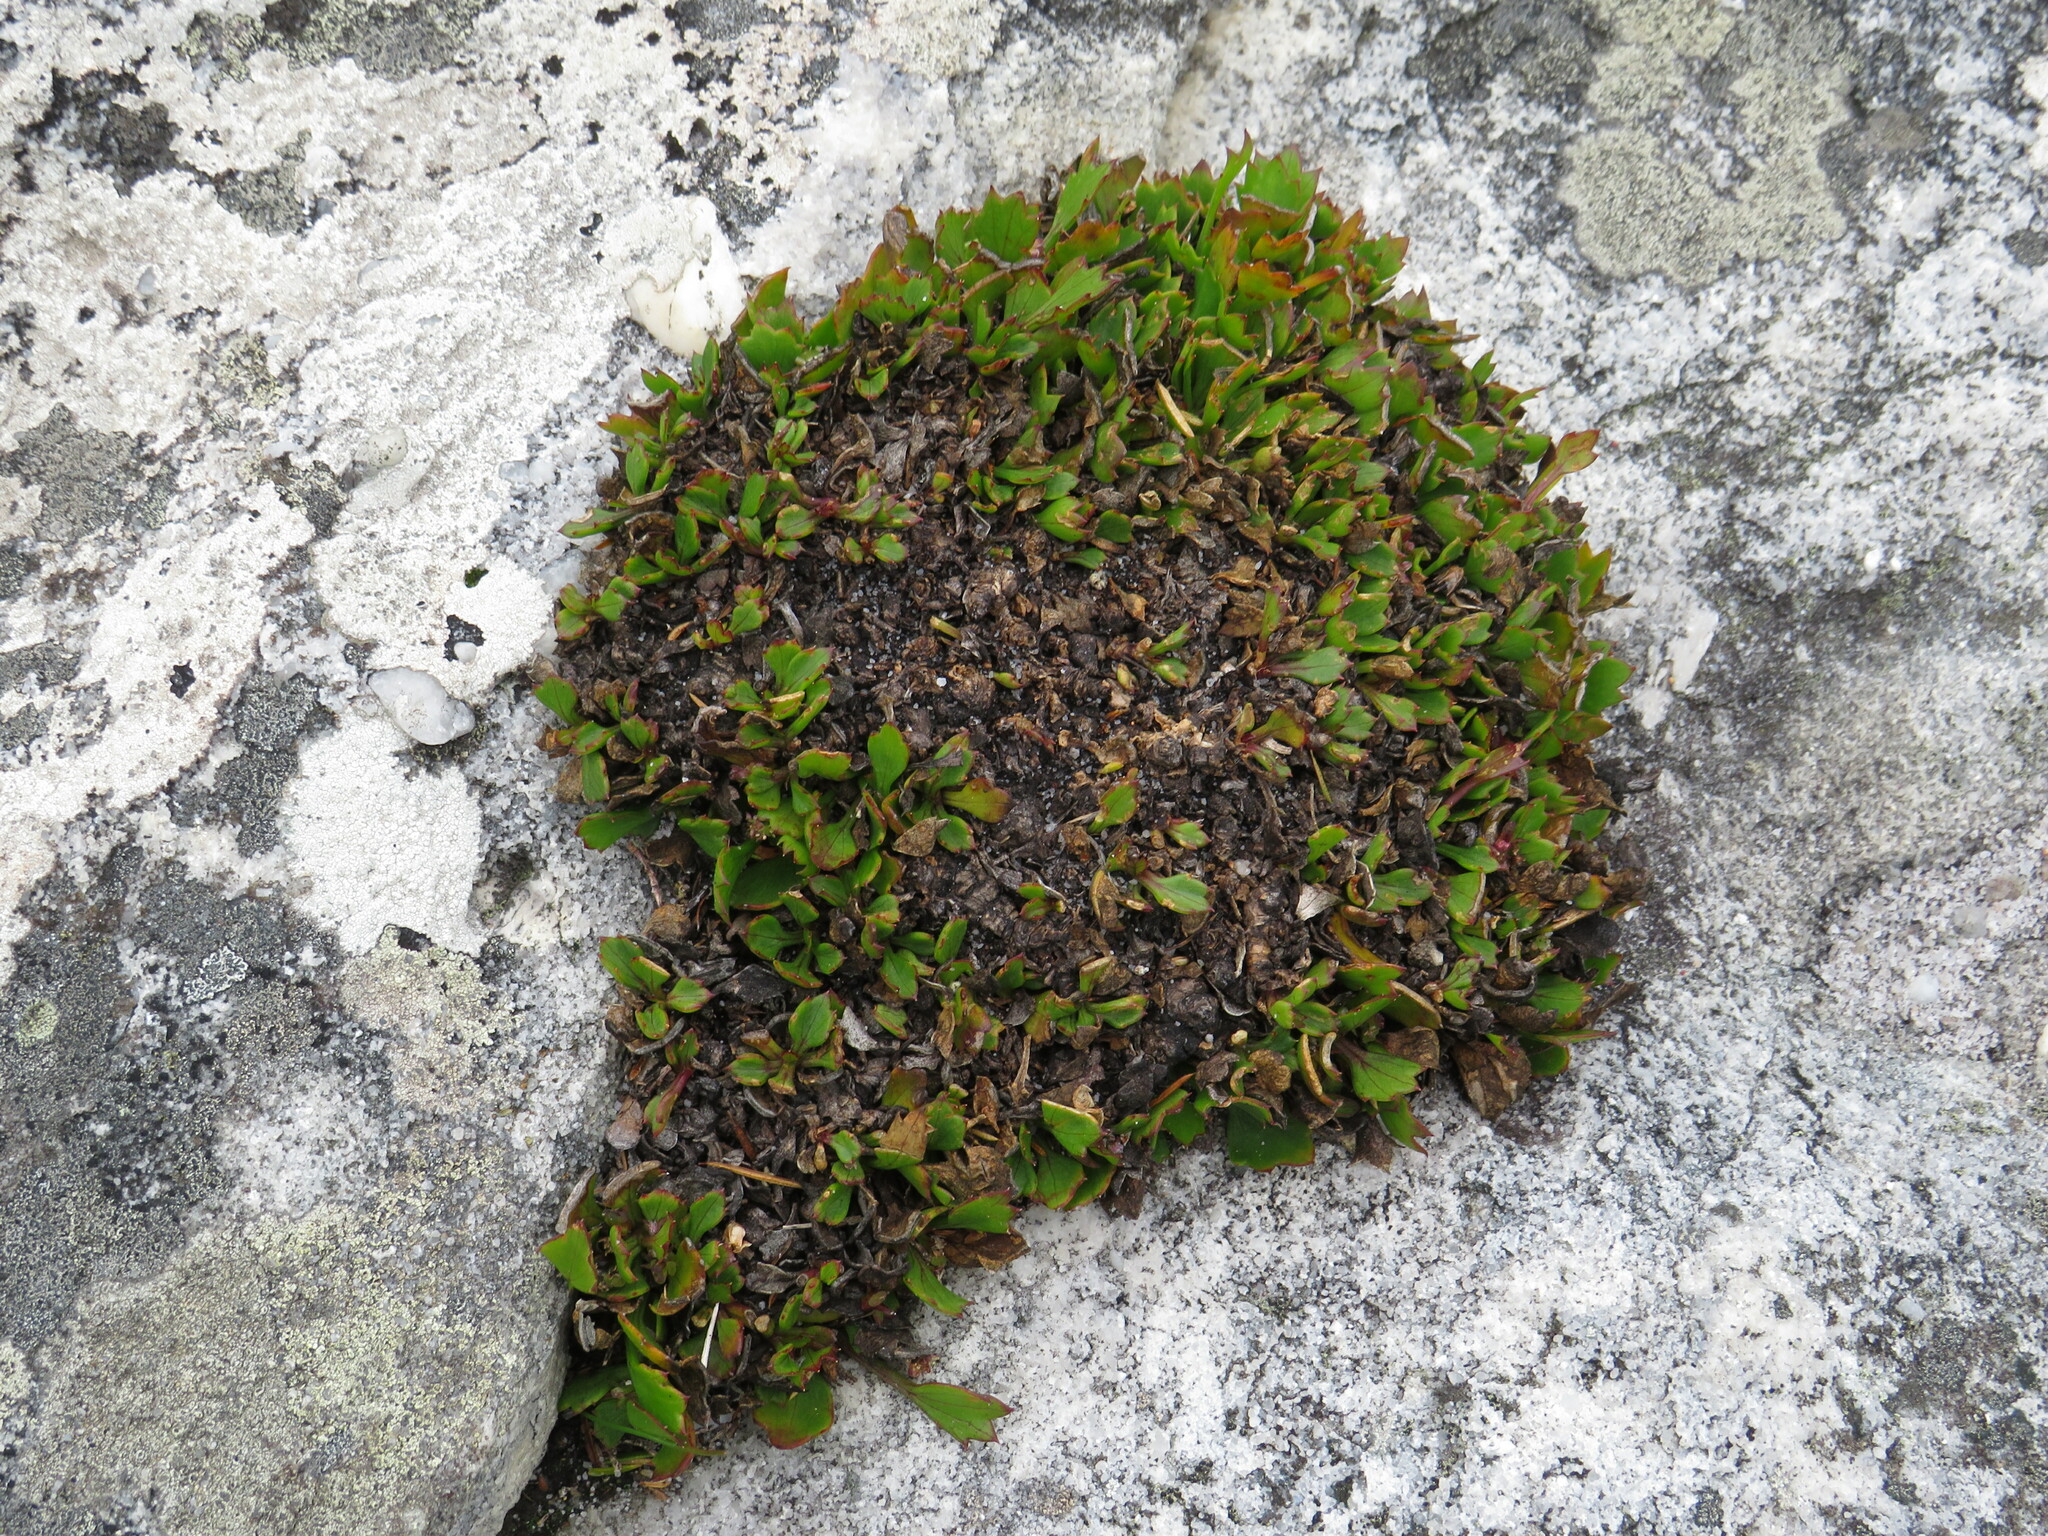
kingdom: Plantae
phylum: Tracheophyta
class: Magnoliopsida
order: Apiales
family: Apiaceae
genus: Centella
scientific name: Centella triloba
